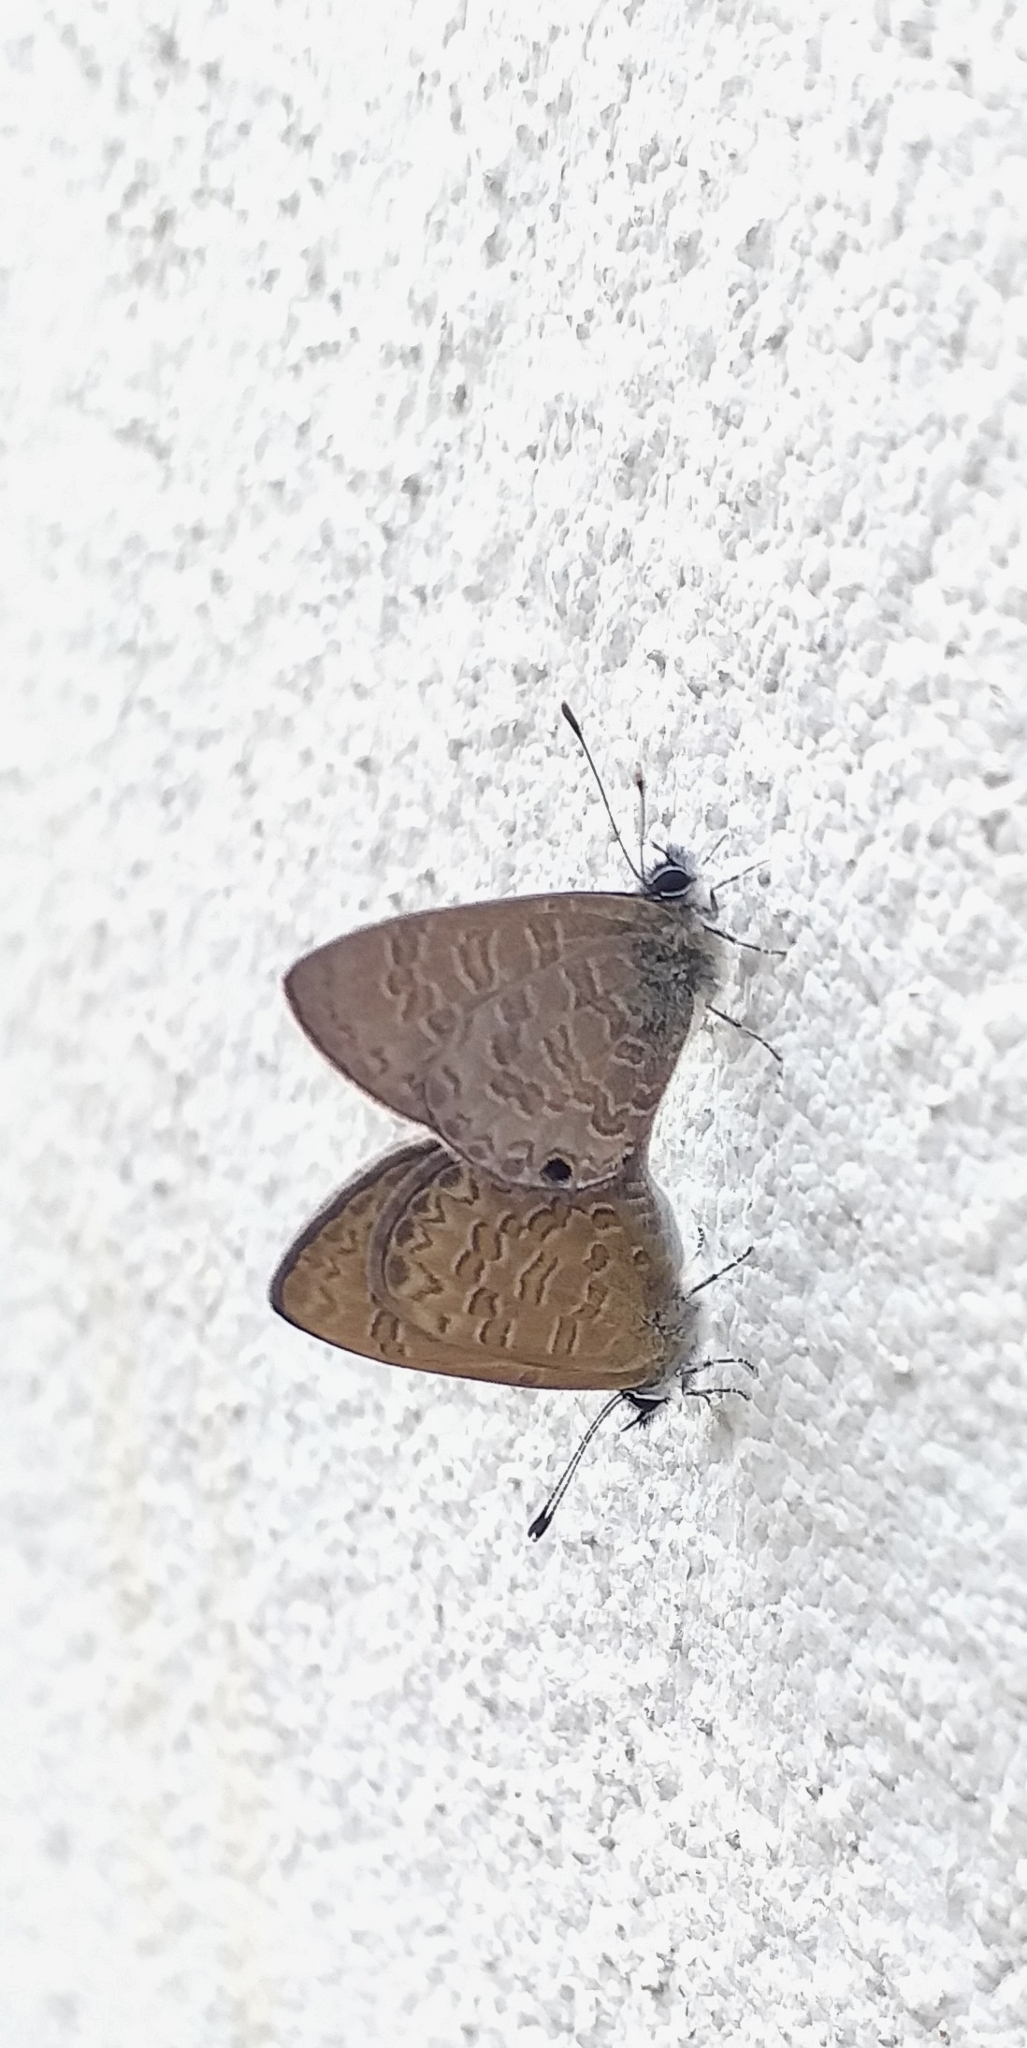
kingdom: Animalia
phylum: Arthropoda
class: Insecta
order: Lepidoptera
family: Lycaenidae
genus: Prosotas
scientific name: Prosotas dubiosa
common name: Tailless lineblue
